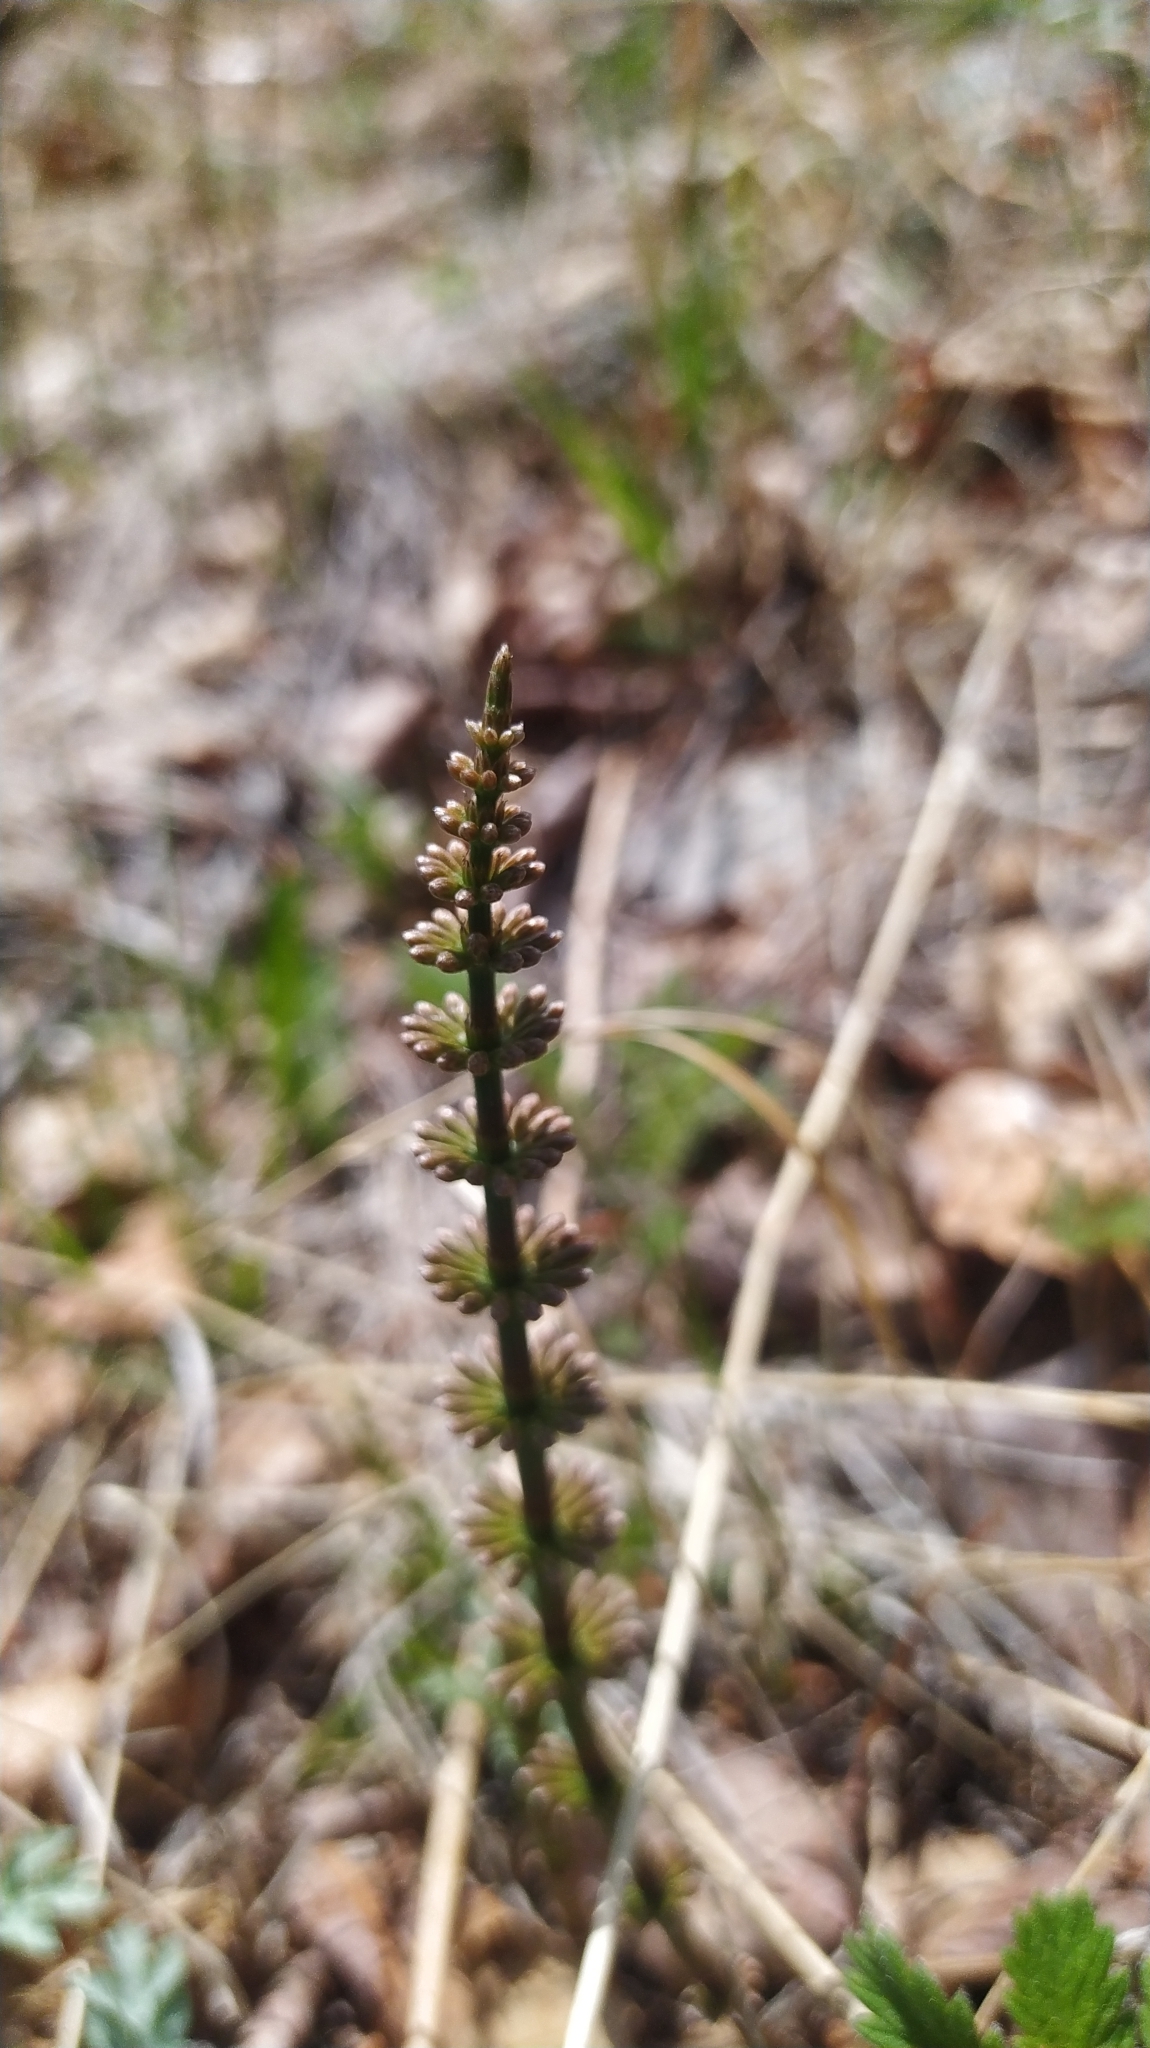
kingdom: Plantae
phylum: Tracheophyta
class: Polypodiopsida
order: Equisetales
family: Equisetaceae
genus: Equisetum
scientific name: Equisetum pratense
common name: Meadow horsetail
